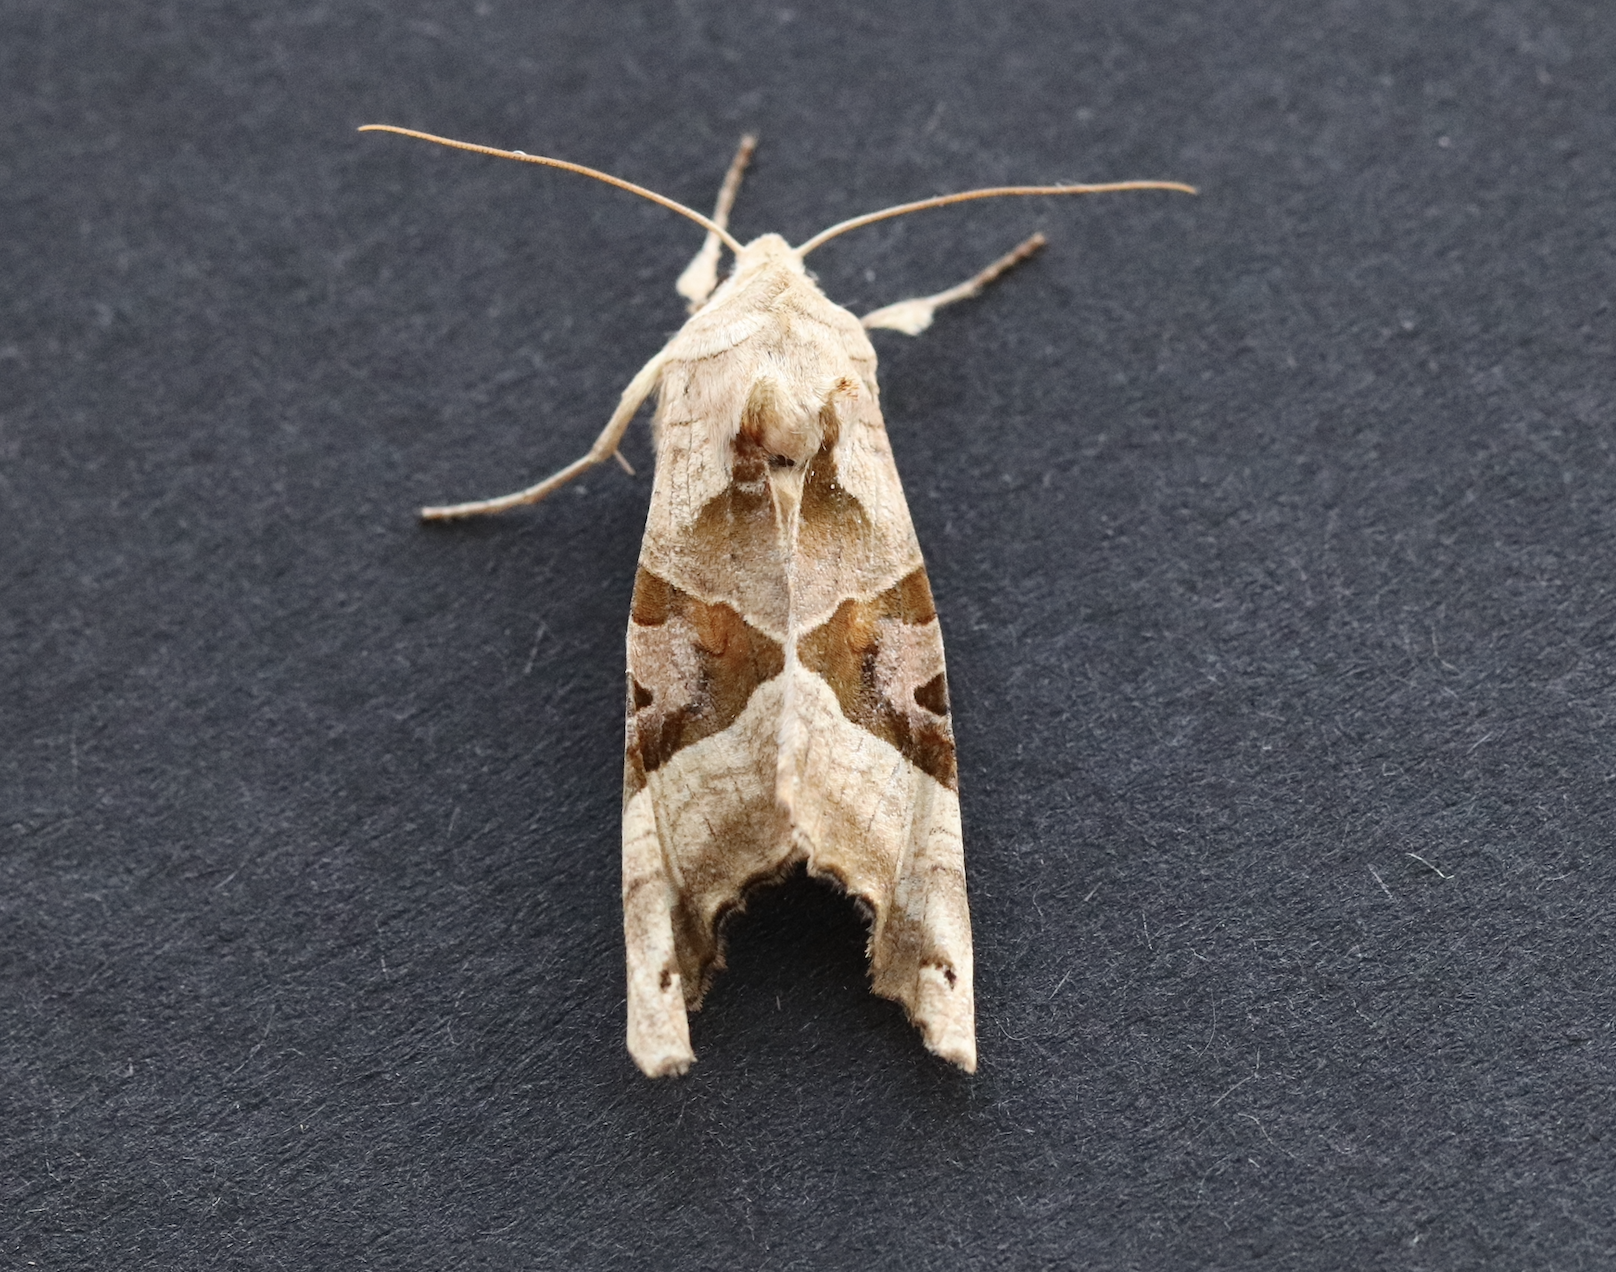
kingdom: Animalia
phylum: Arthropoda
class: Insecta
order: Lepidoptera
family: Noctuidae
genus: Phlogophora
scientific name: Phlogophora meticulosa
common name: Angle shades
